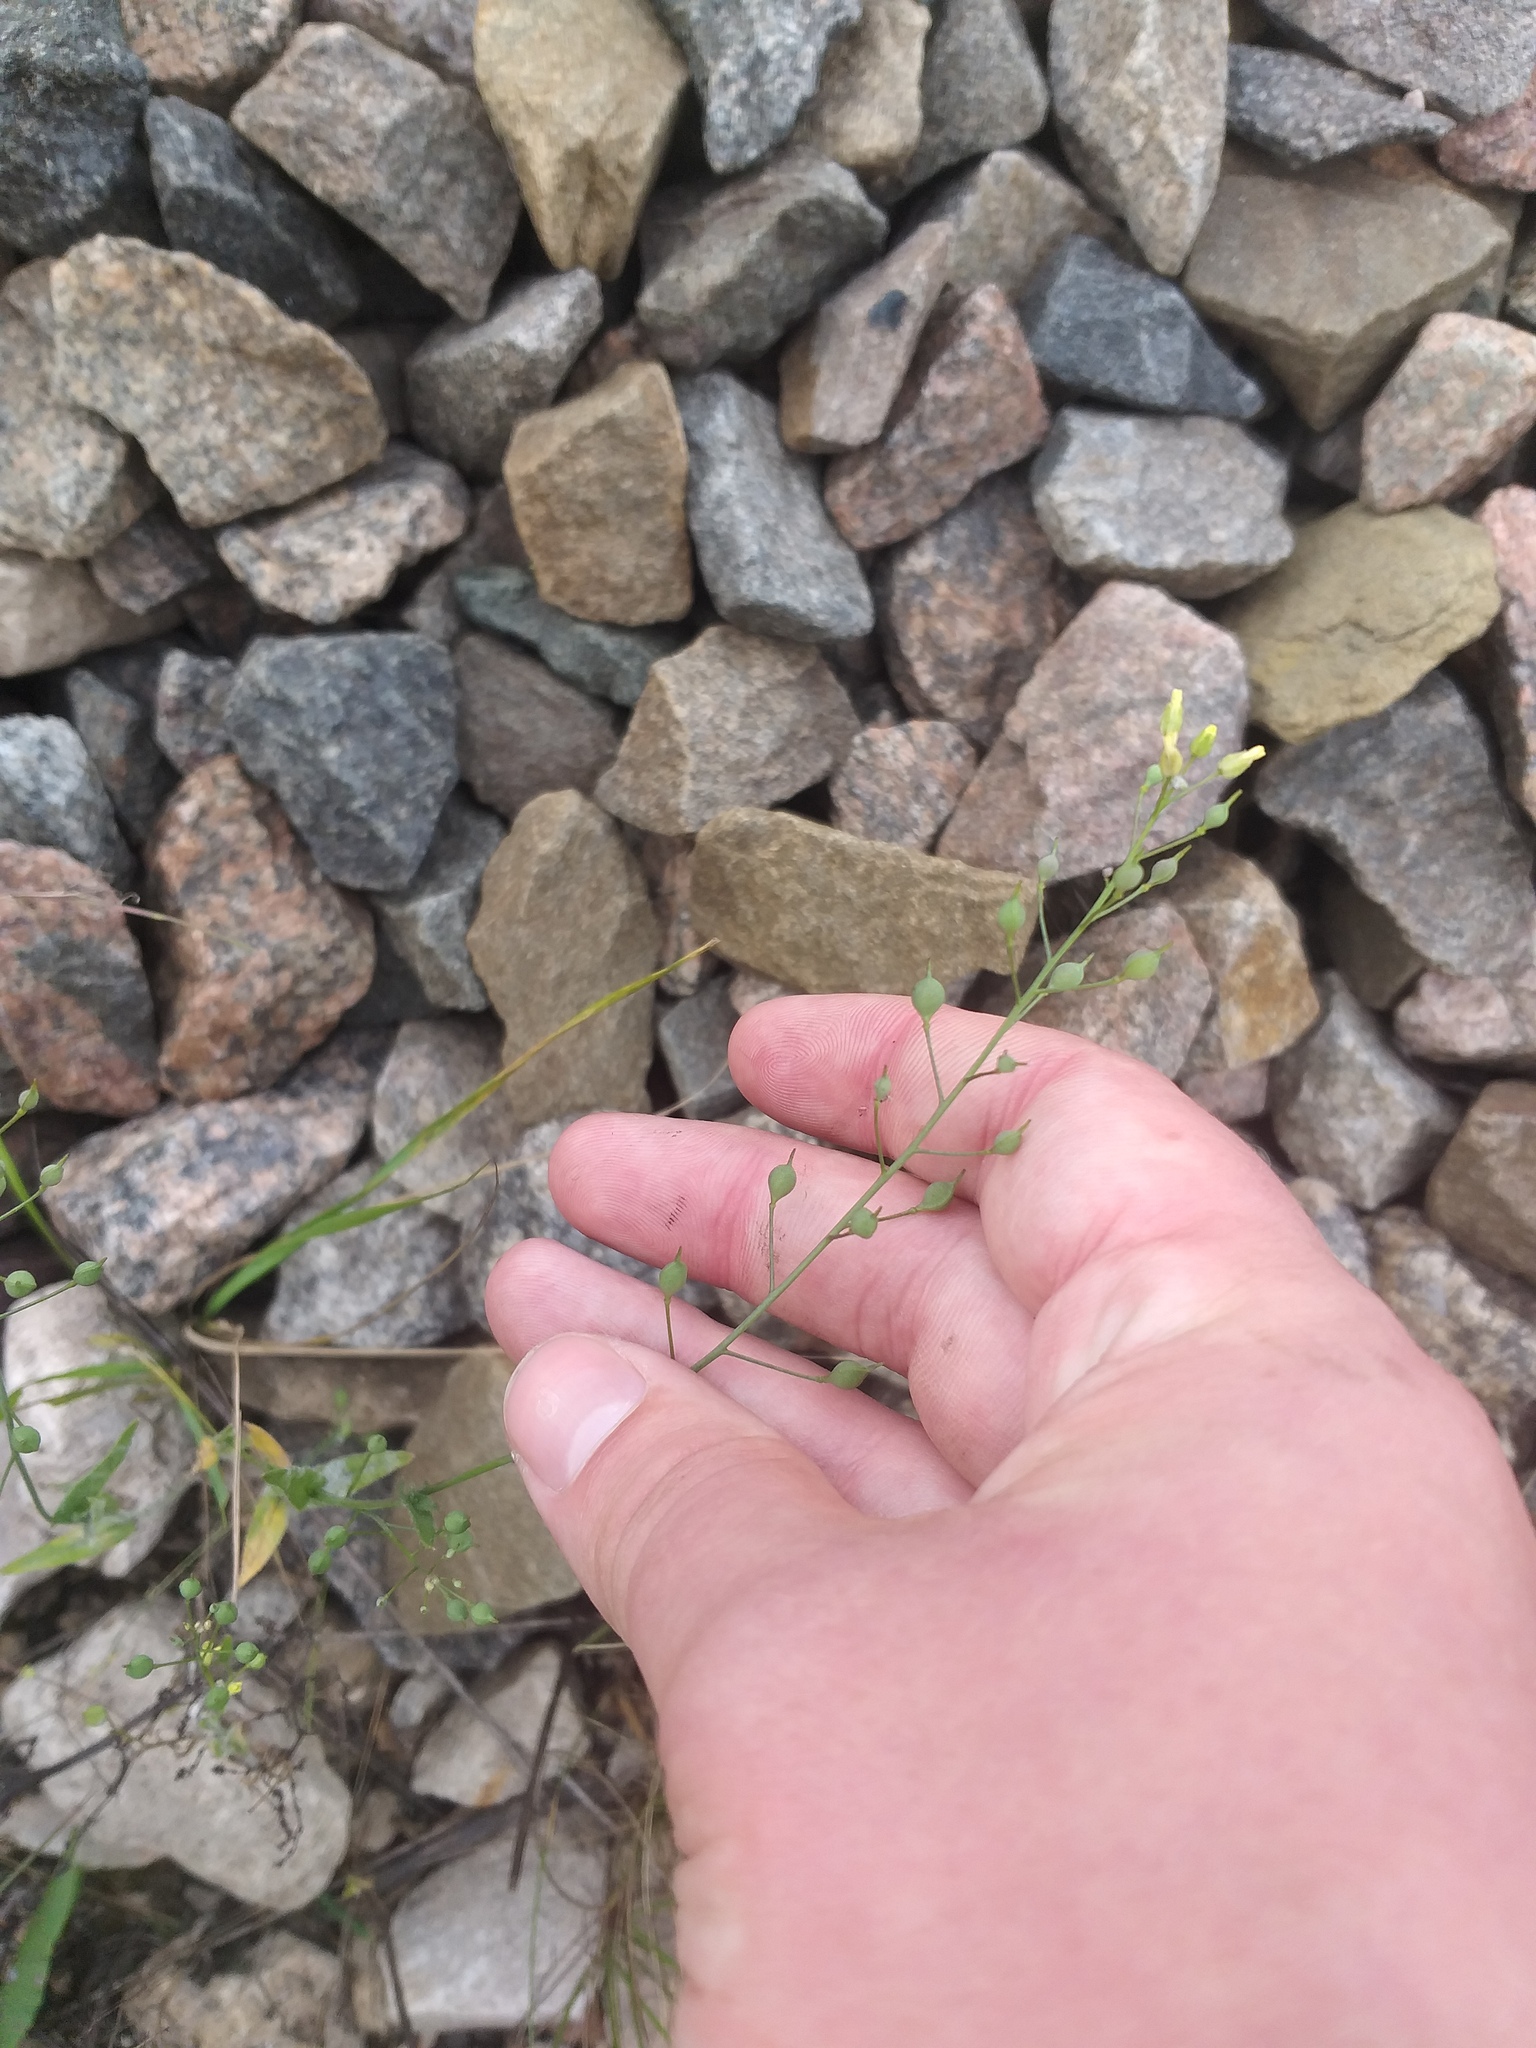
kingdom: Plantae
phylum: Tracheophyta
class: Magnoliopsida
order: Brassicales
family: Brassicaceae
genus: Camelina
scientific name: Camelina microcarpa
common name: Lesser gold-of-pleasure
